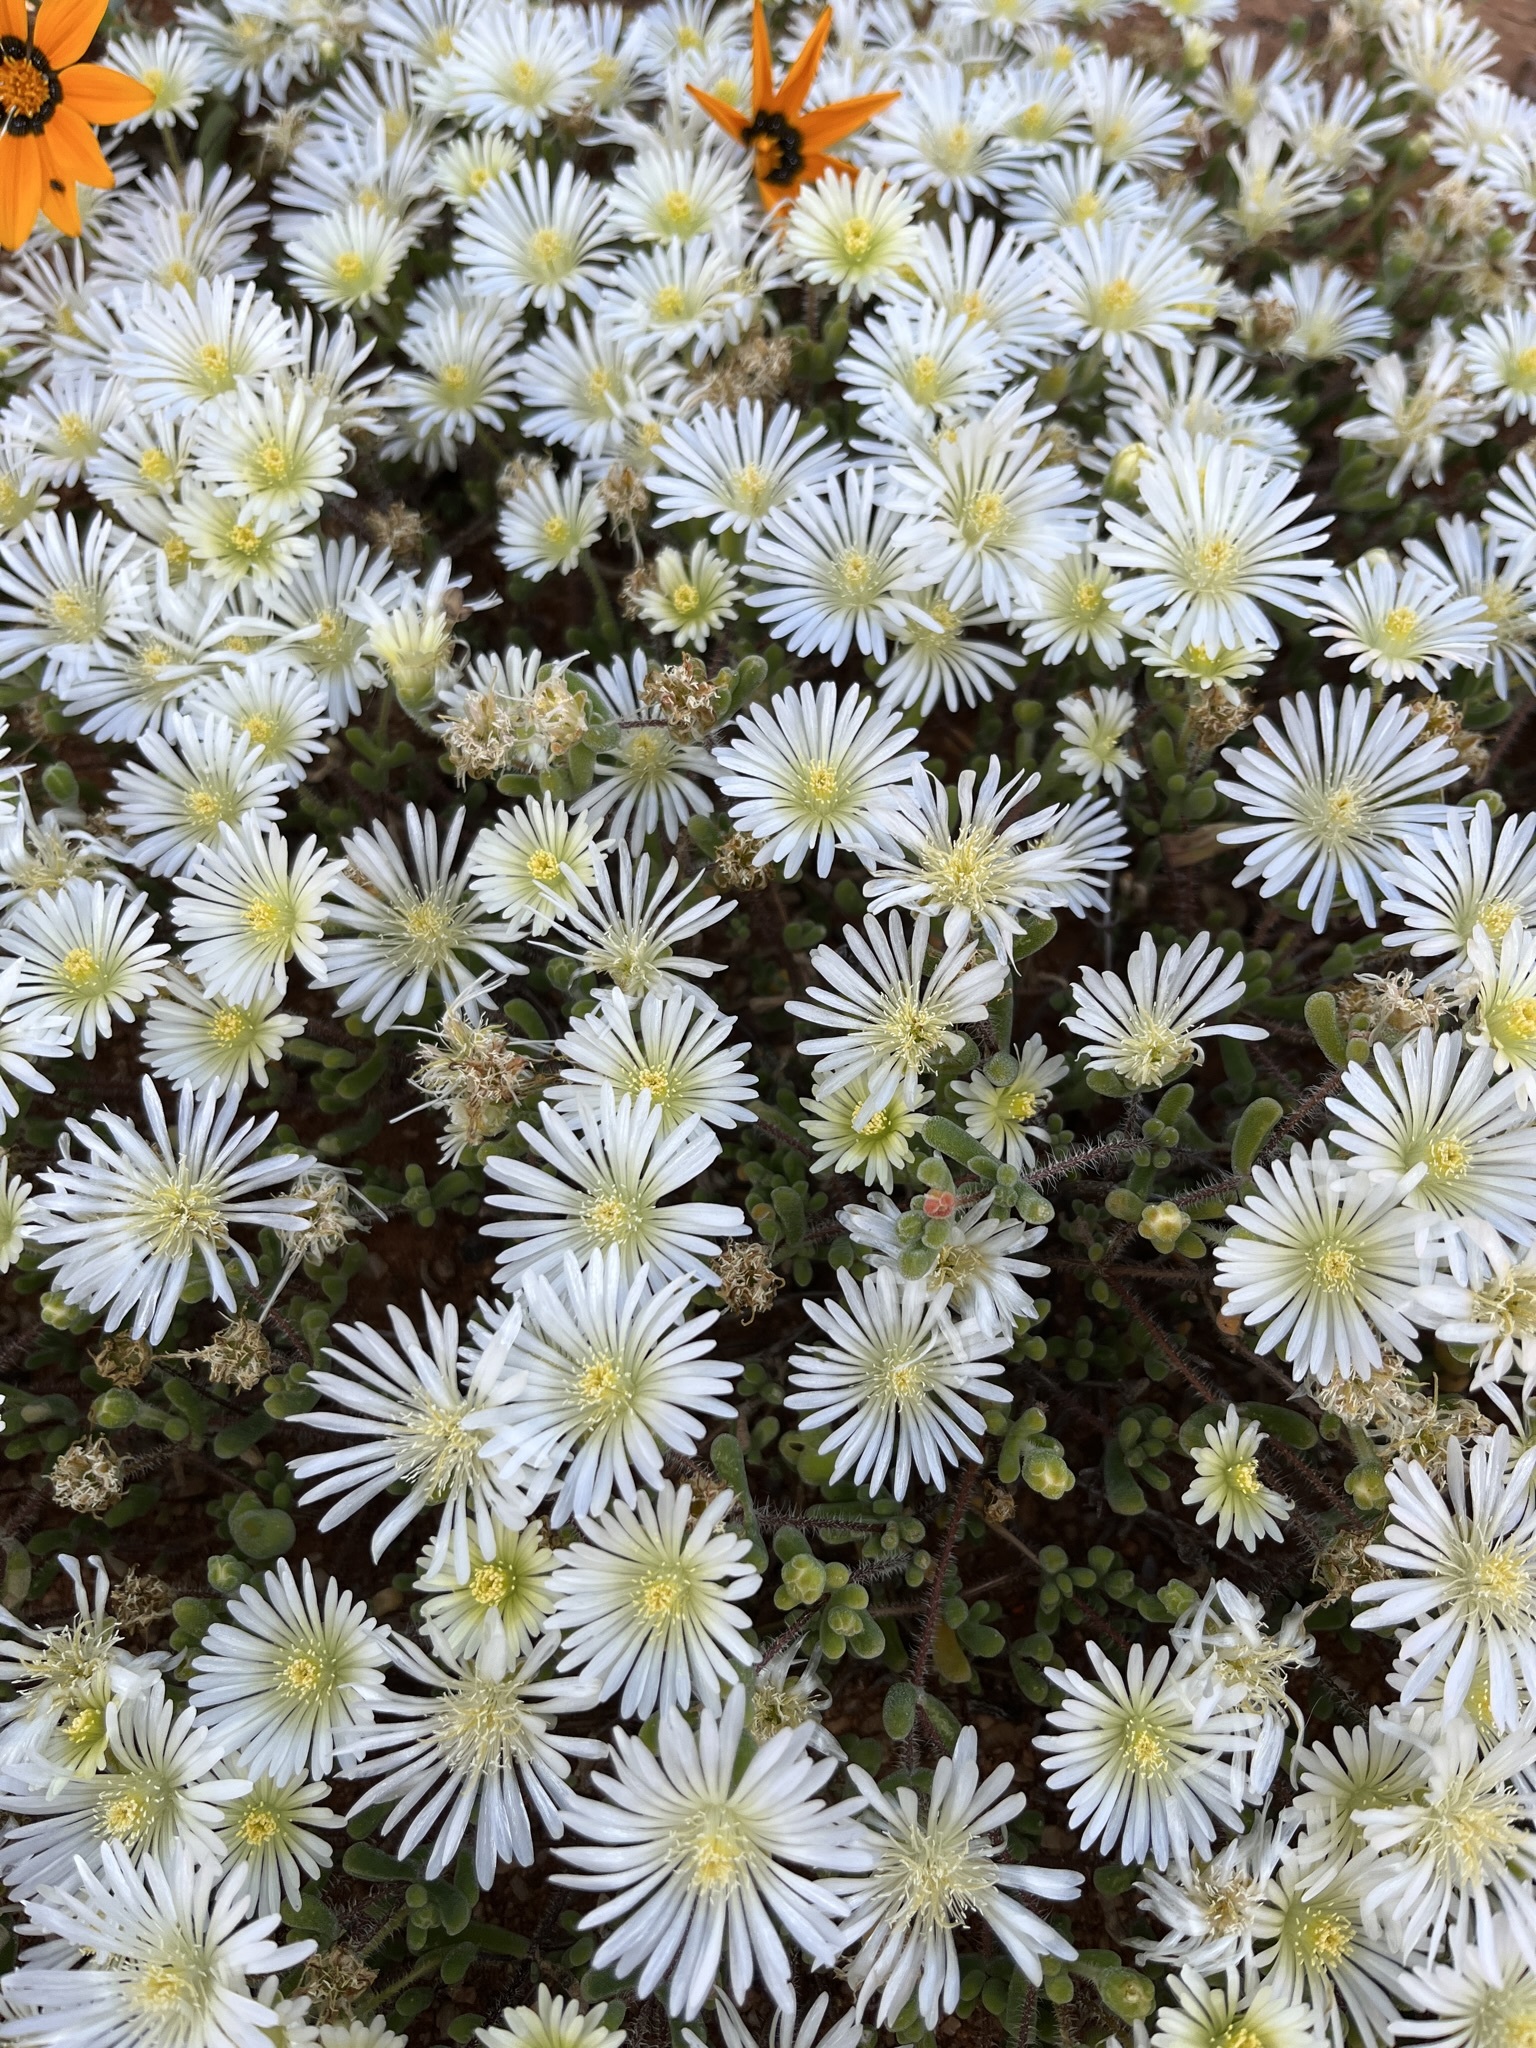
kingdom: Plantae
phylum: Tracheophyta
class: Magnoliopsida
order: Caryophyllales
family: Aizoaceae
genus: Drosanthemum
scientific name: Drosanthemum schoenlandianum
